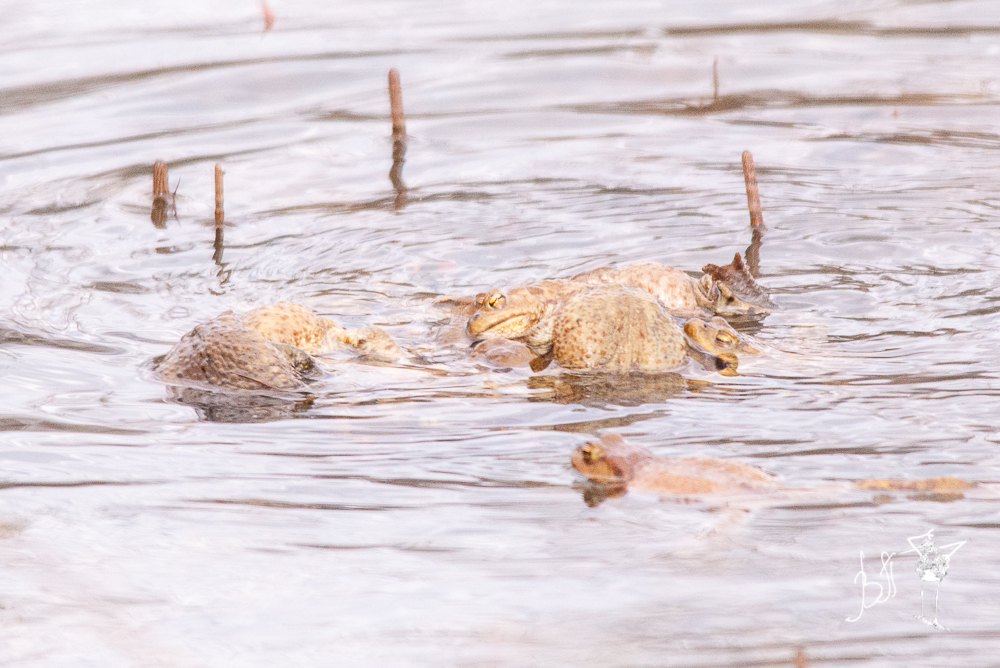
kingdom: Animalia
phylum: Chordata
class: Amphibia
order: Anura
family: Bufonidae
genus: Bufo
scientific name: Bufo bufo
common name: Common toad
